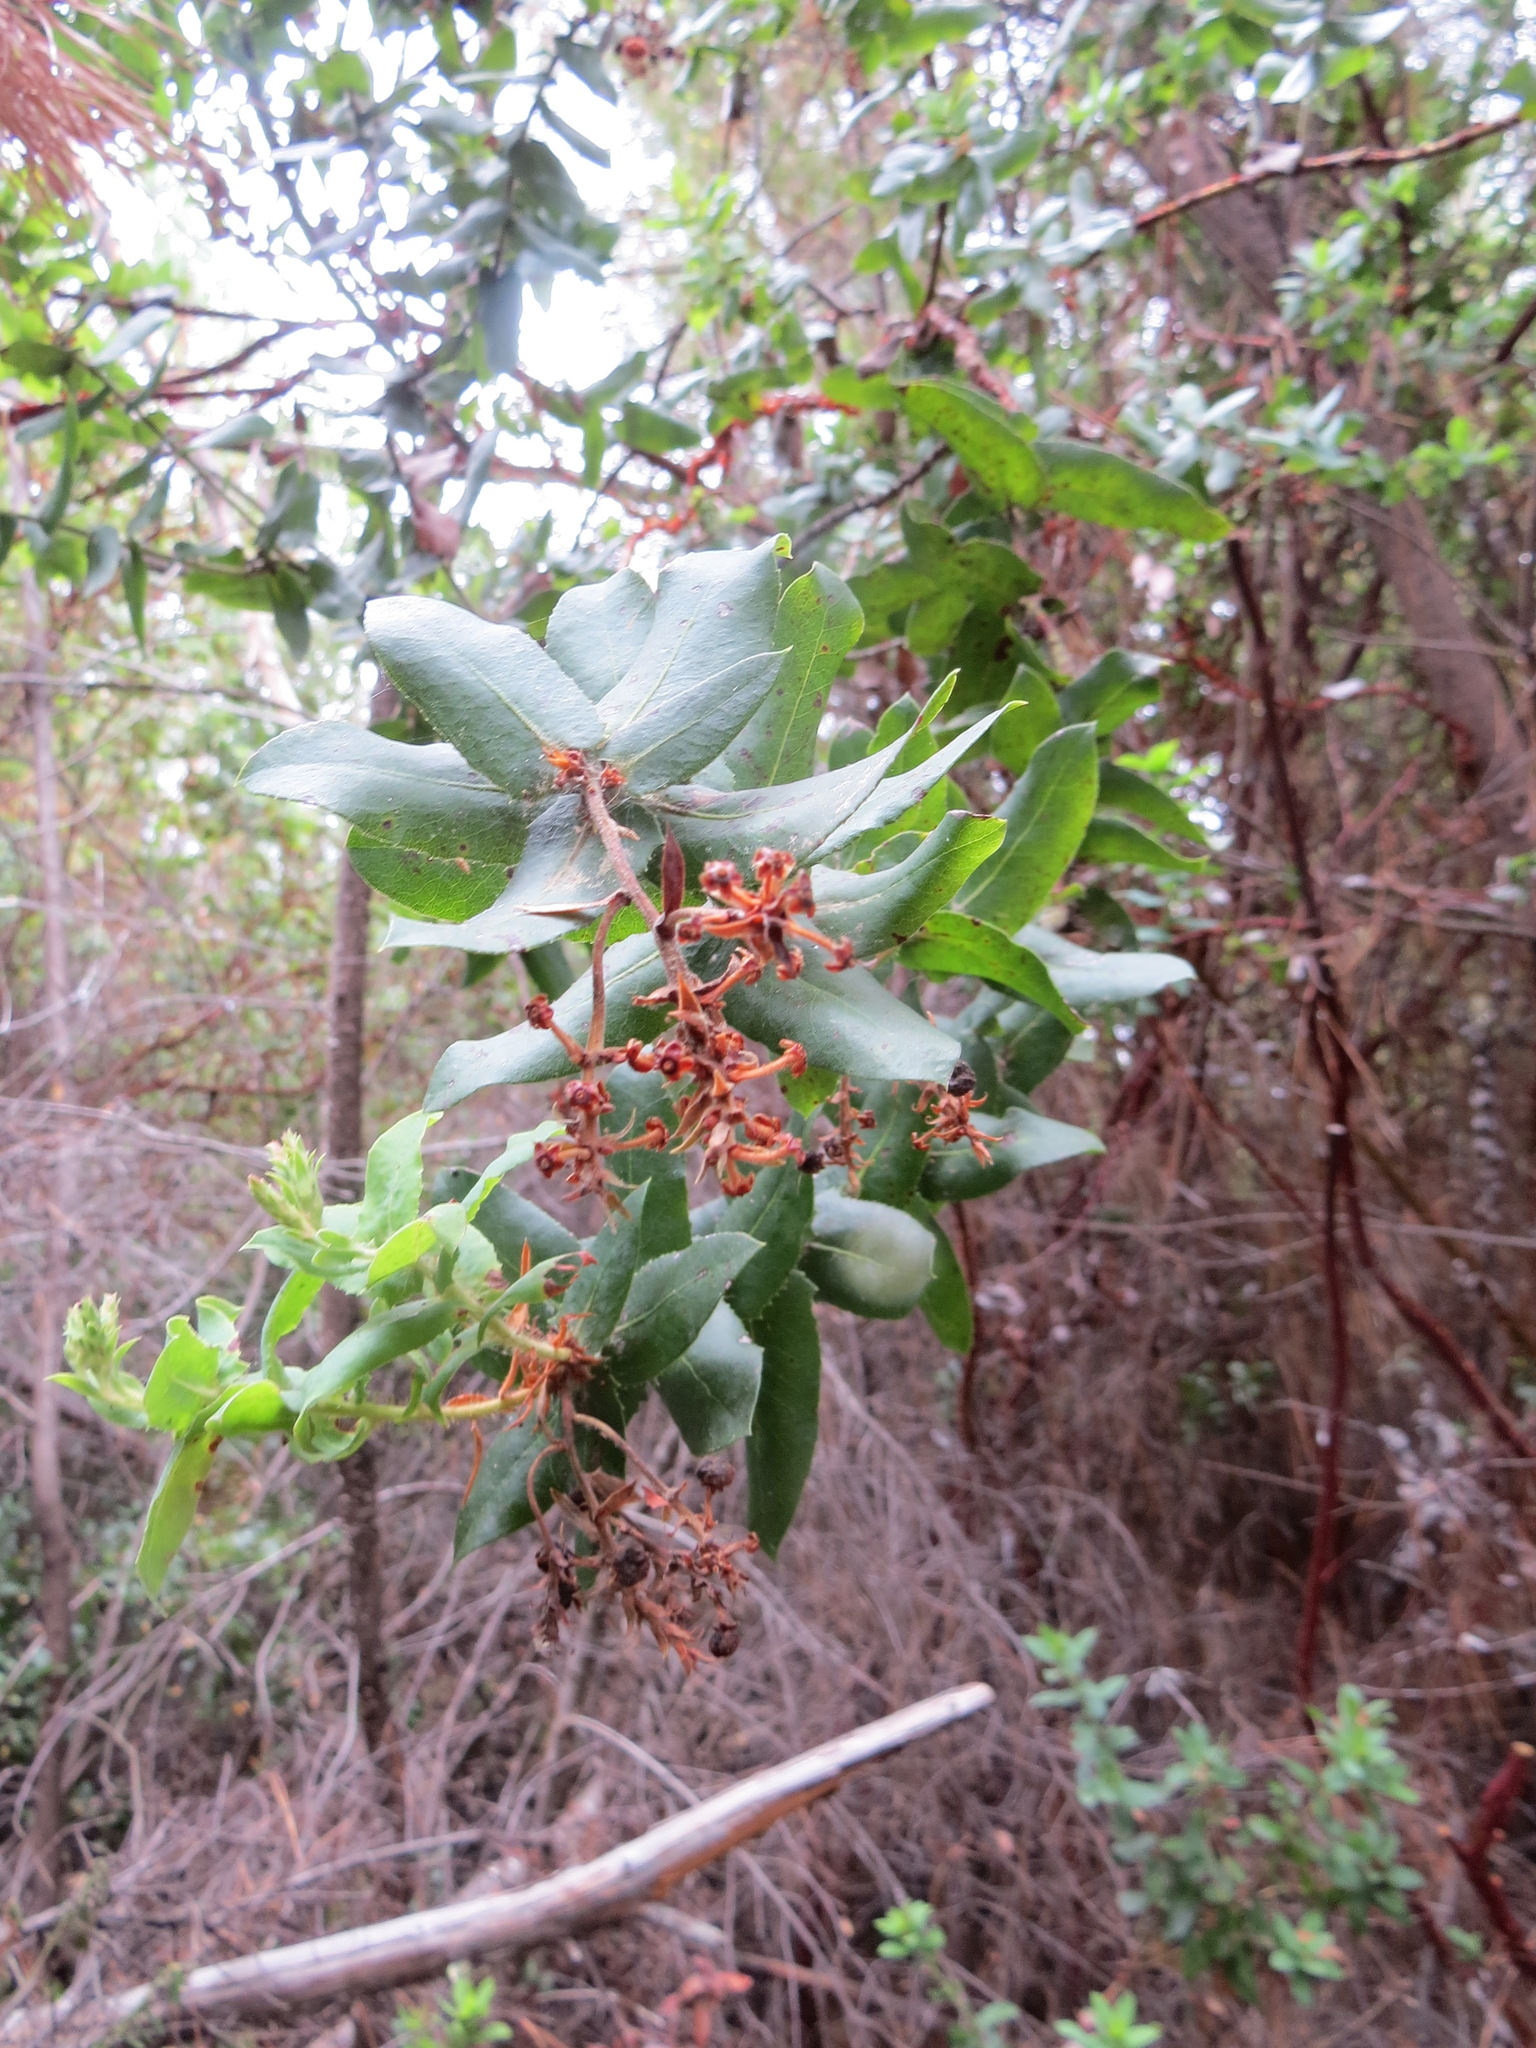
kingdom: Plantae
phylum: Tracheophyta
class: Magnoliopsida
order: Ericales
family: Ericaceae
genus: Arctostaphylos
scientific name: Arctostaphylos andersonii
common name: Santa cruz manzanita
